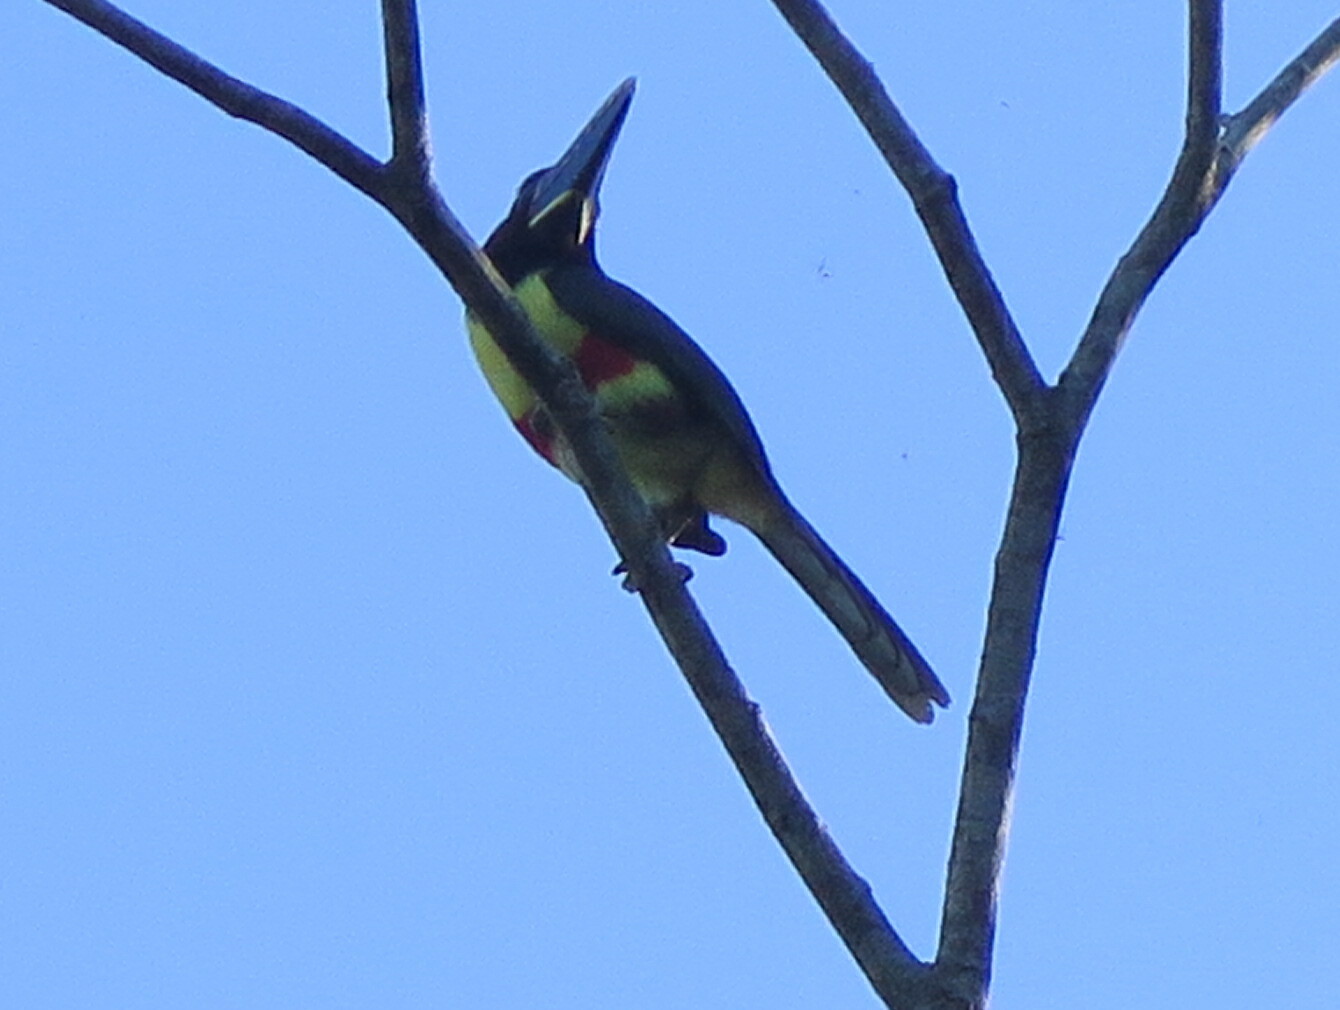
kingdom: Animalia
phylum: Chordata
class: Aves
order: Piciformes
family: Ramphastidae
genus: Pteroglossus
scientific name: Pteroglossus castanotis
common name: Chestnut-eared aracari
